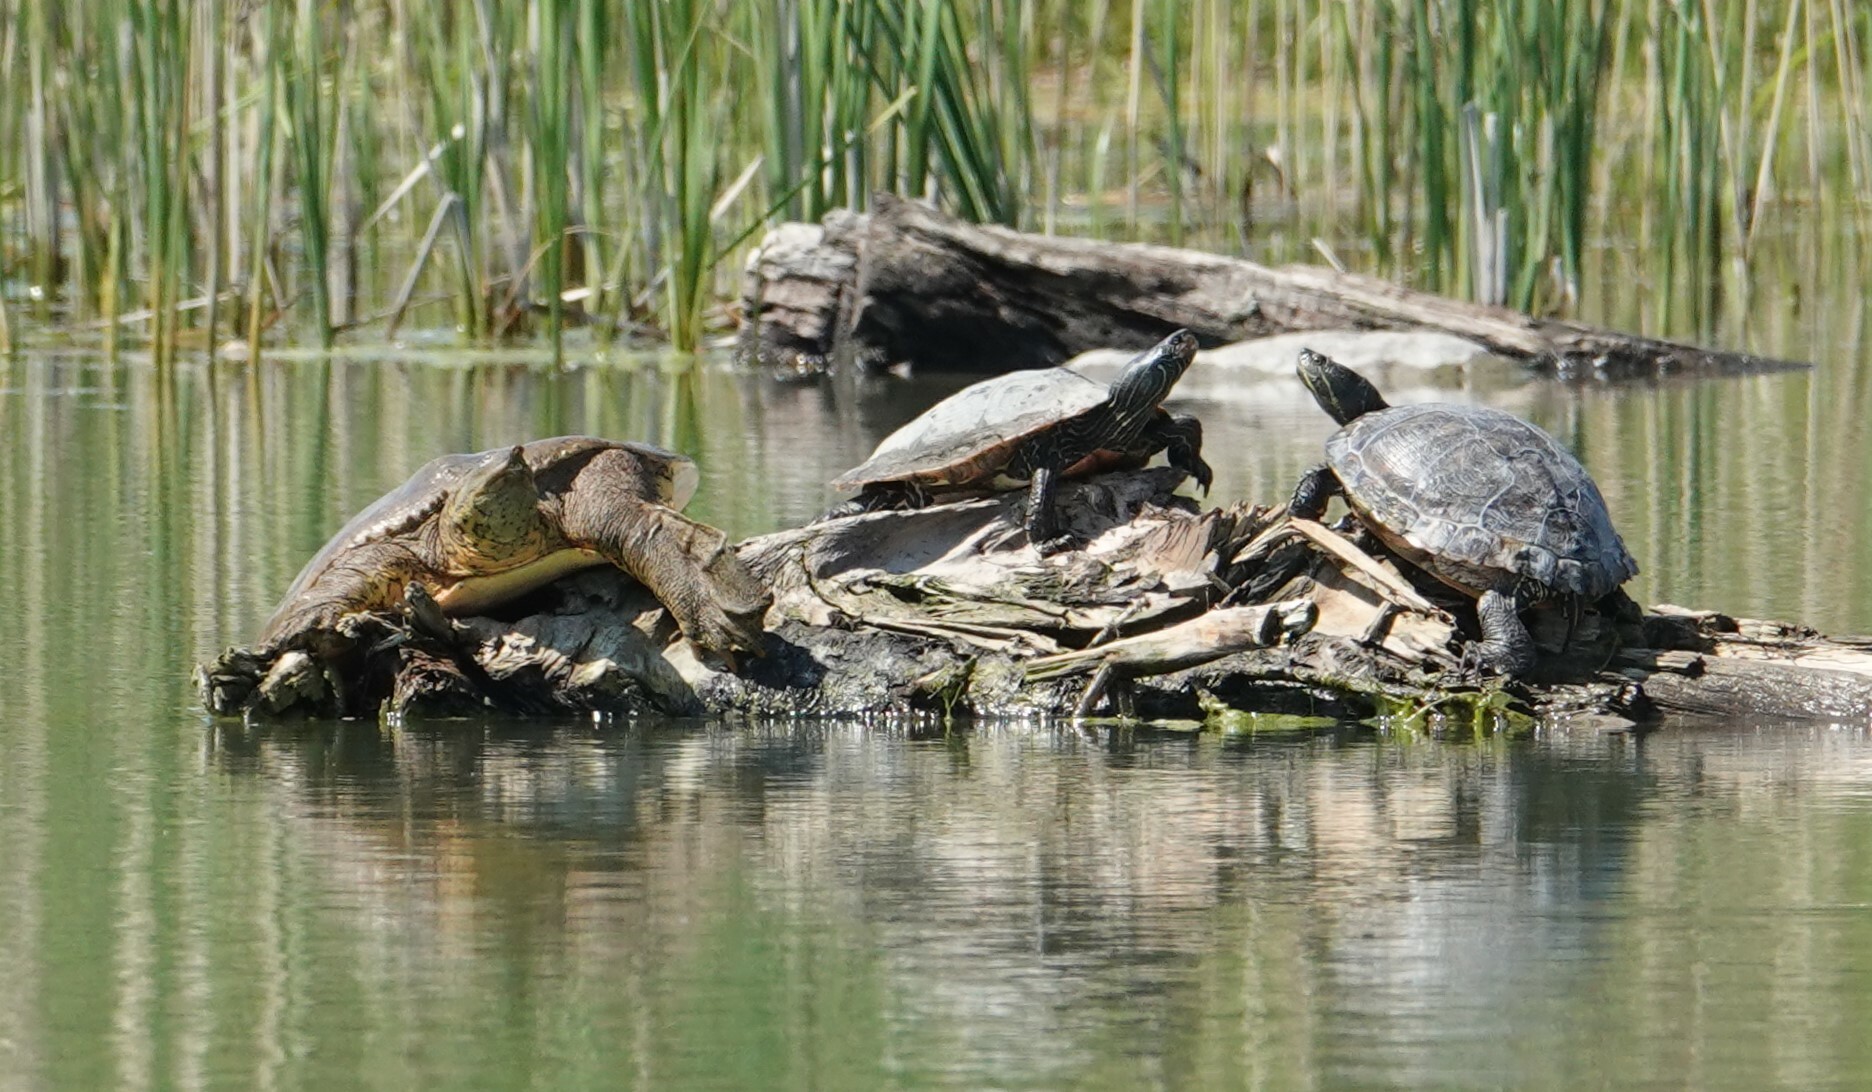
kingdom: Animalia
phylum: Chordata
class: Testudines
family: Emydidae
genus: Trachemys
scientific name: Trachemys scripta
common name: Slider
